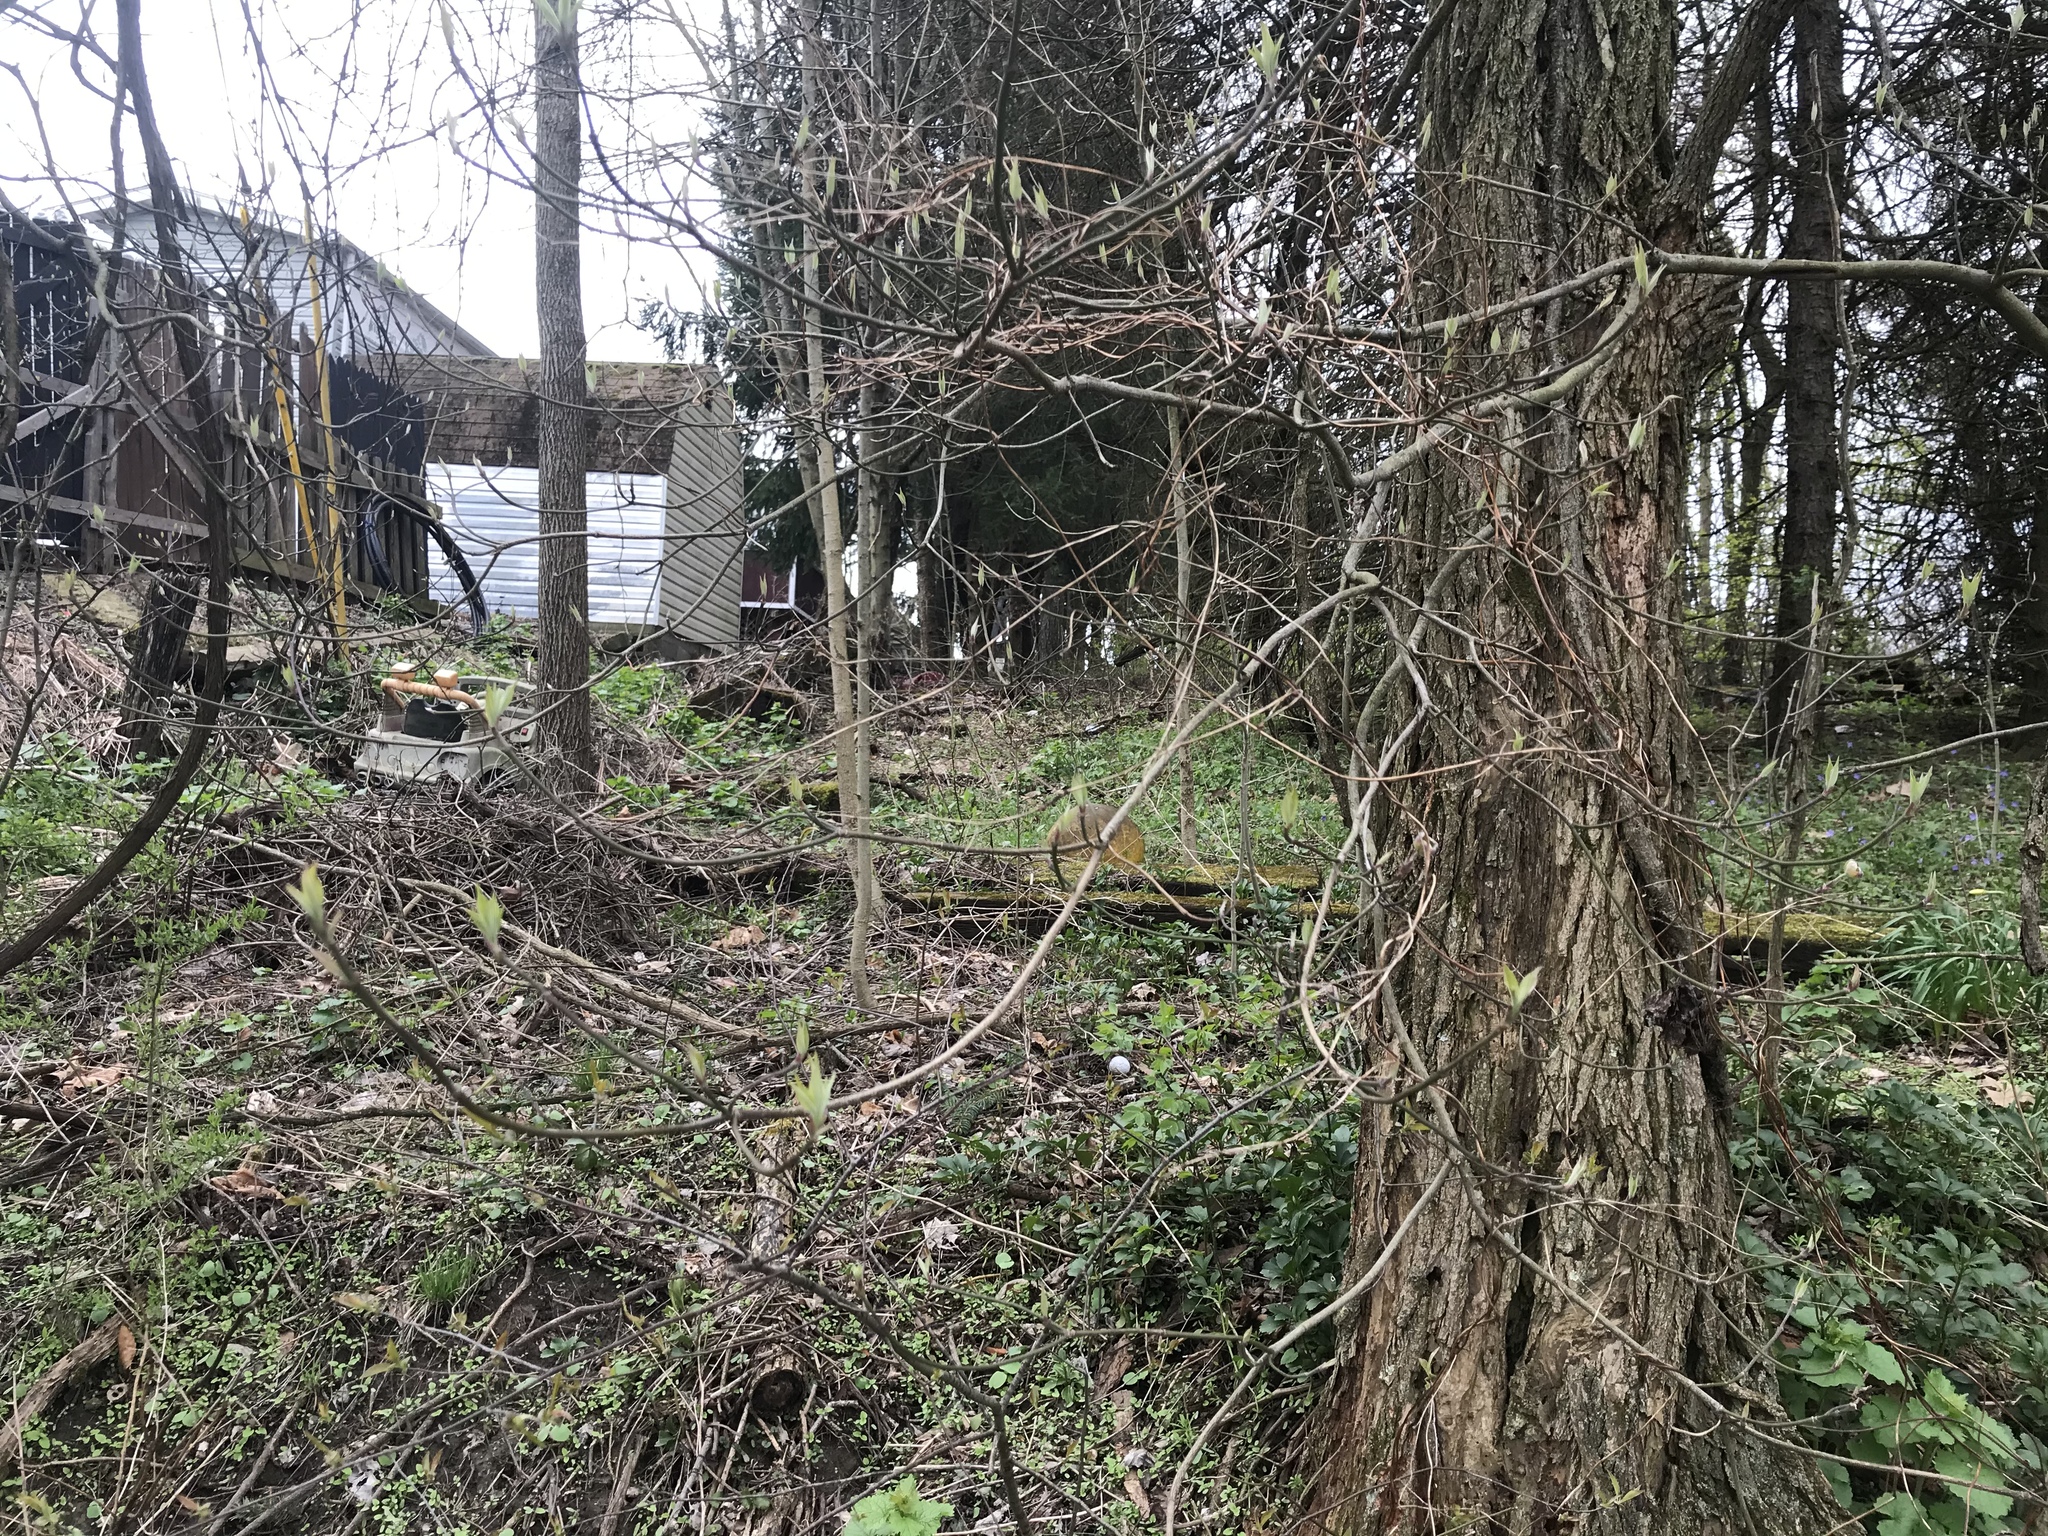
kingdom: Plantae
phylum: Tracheophyta
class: Magnoliopsida
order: Cornales
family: Cornaceae
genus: Cornus
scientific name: Cornus florida
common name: Flowering dogwood
